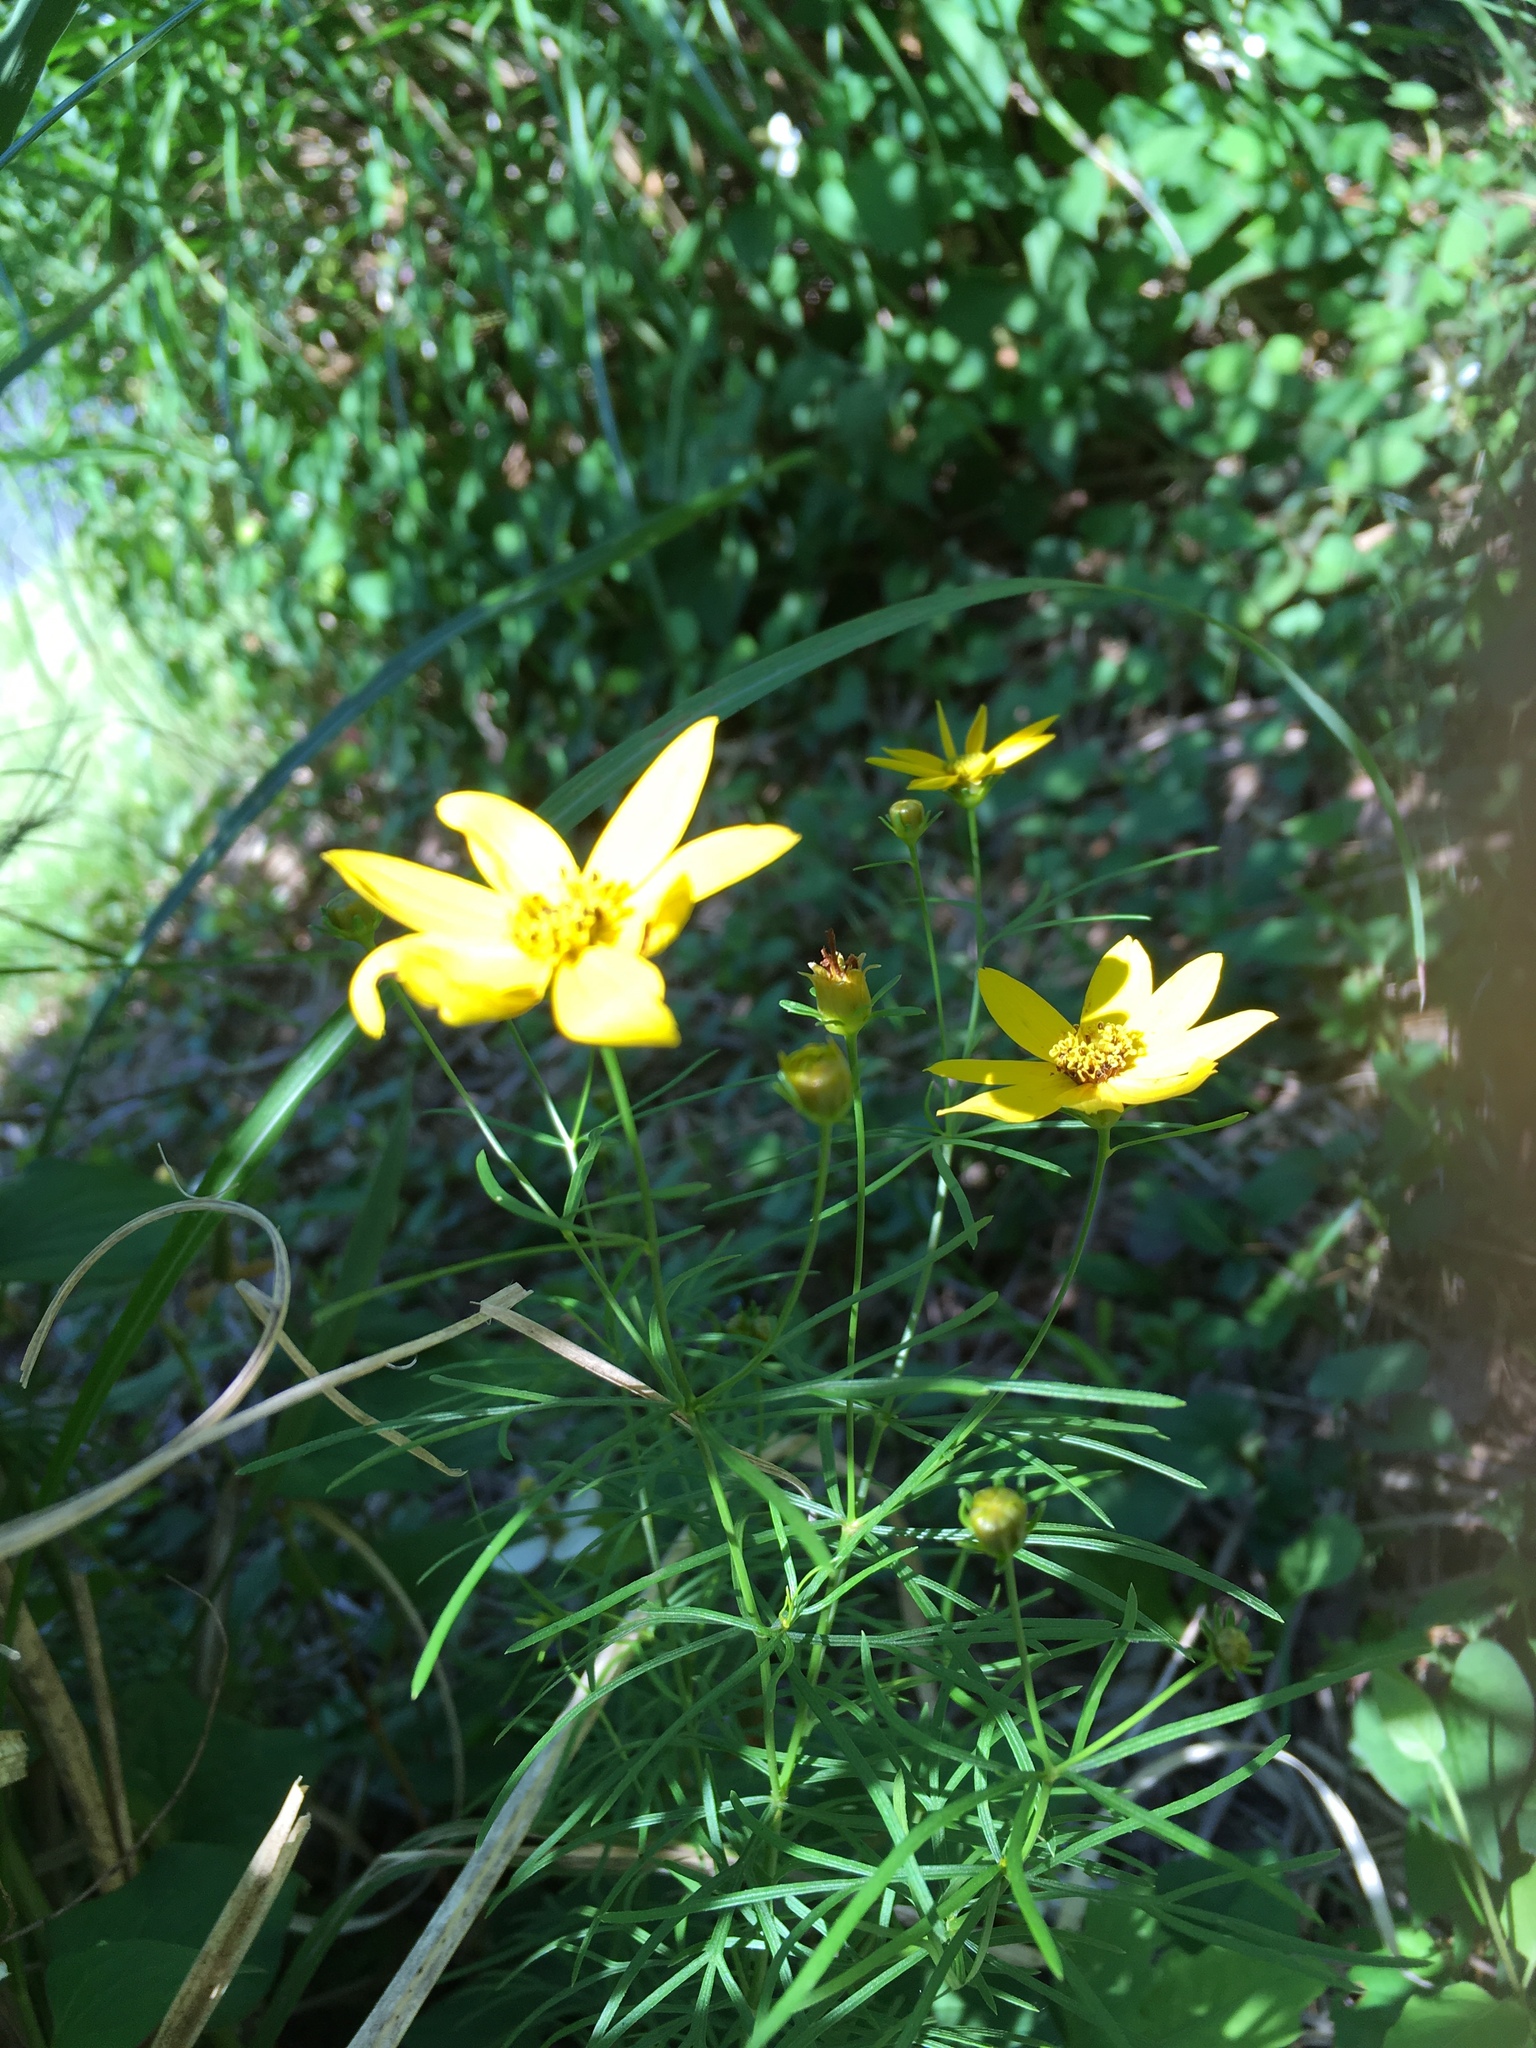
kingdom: Plantae
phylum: Tracheophyta
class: Magnoliopsida
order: Asterales
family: Asteraceae
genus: Coreopsis
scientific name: Coreopsis verticillata
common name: Whorled tickseed
